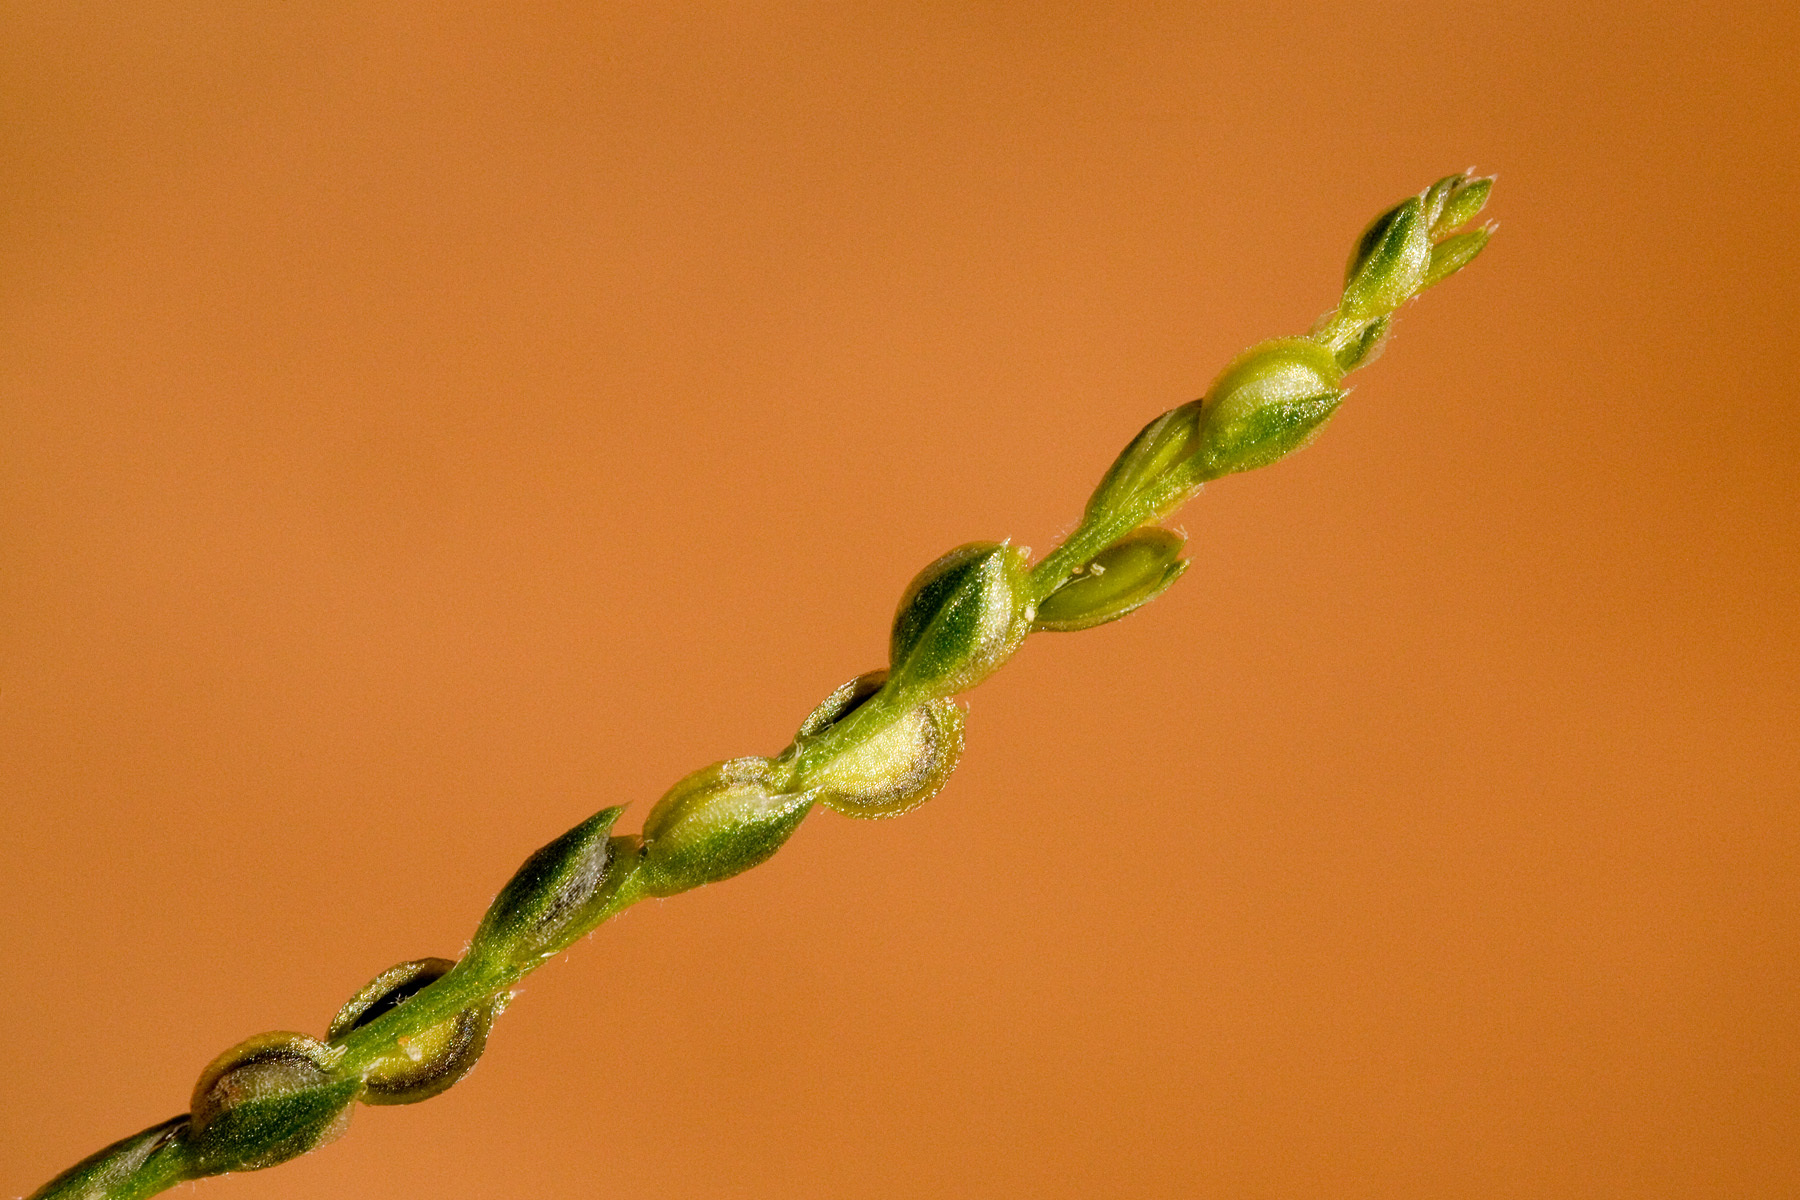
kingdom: Plantae
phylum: Tracheophyta
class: Magnoliopsida
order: Caryophyllales
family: Amaranthaceae
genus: Corispermum
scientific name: Corispermum americanum
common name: American bugseed
